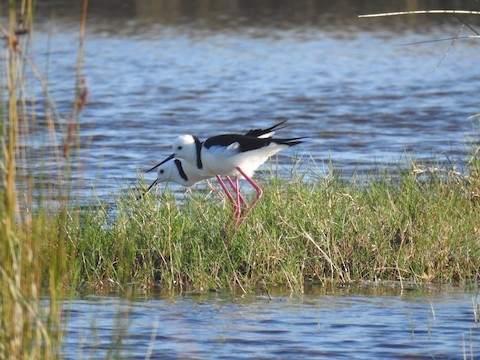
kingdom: Animalia
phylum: Chordata
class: Aves
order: Charadriiformes
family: Recurvirostridae
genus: Himantopus
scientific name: Himantopus leucocephalus
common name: White-headed stilt
